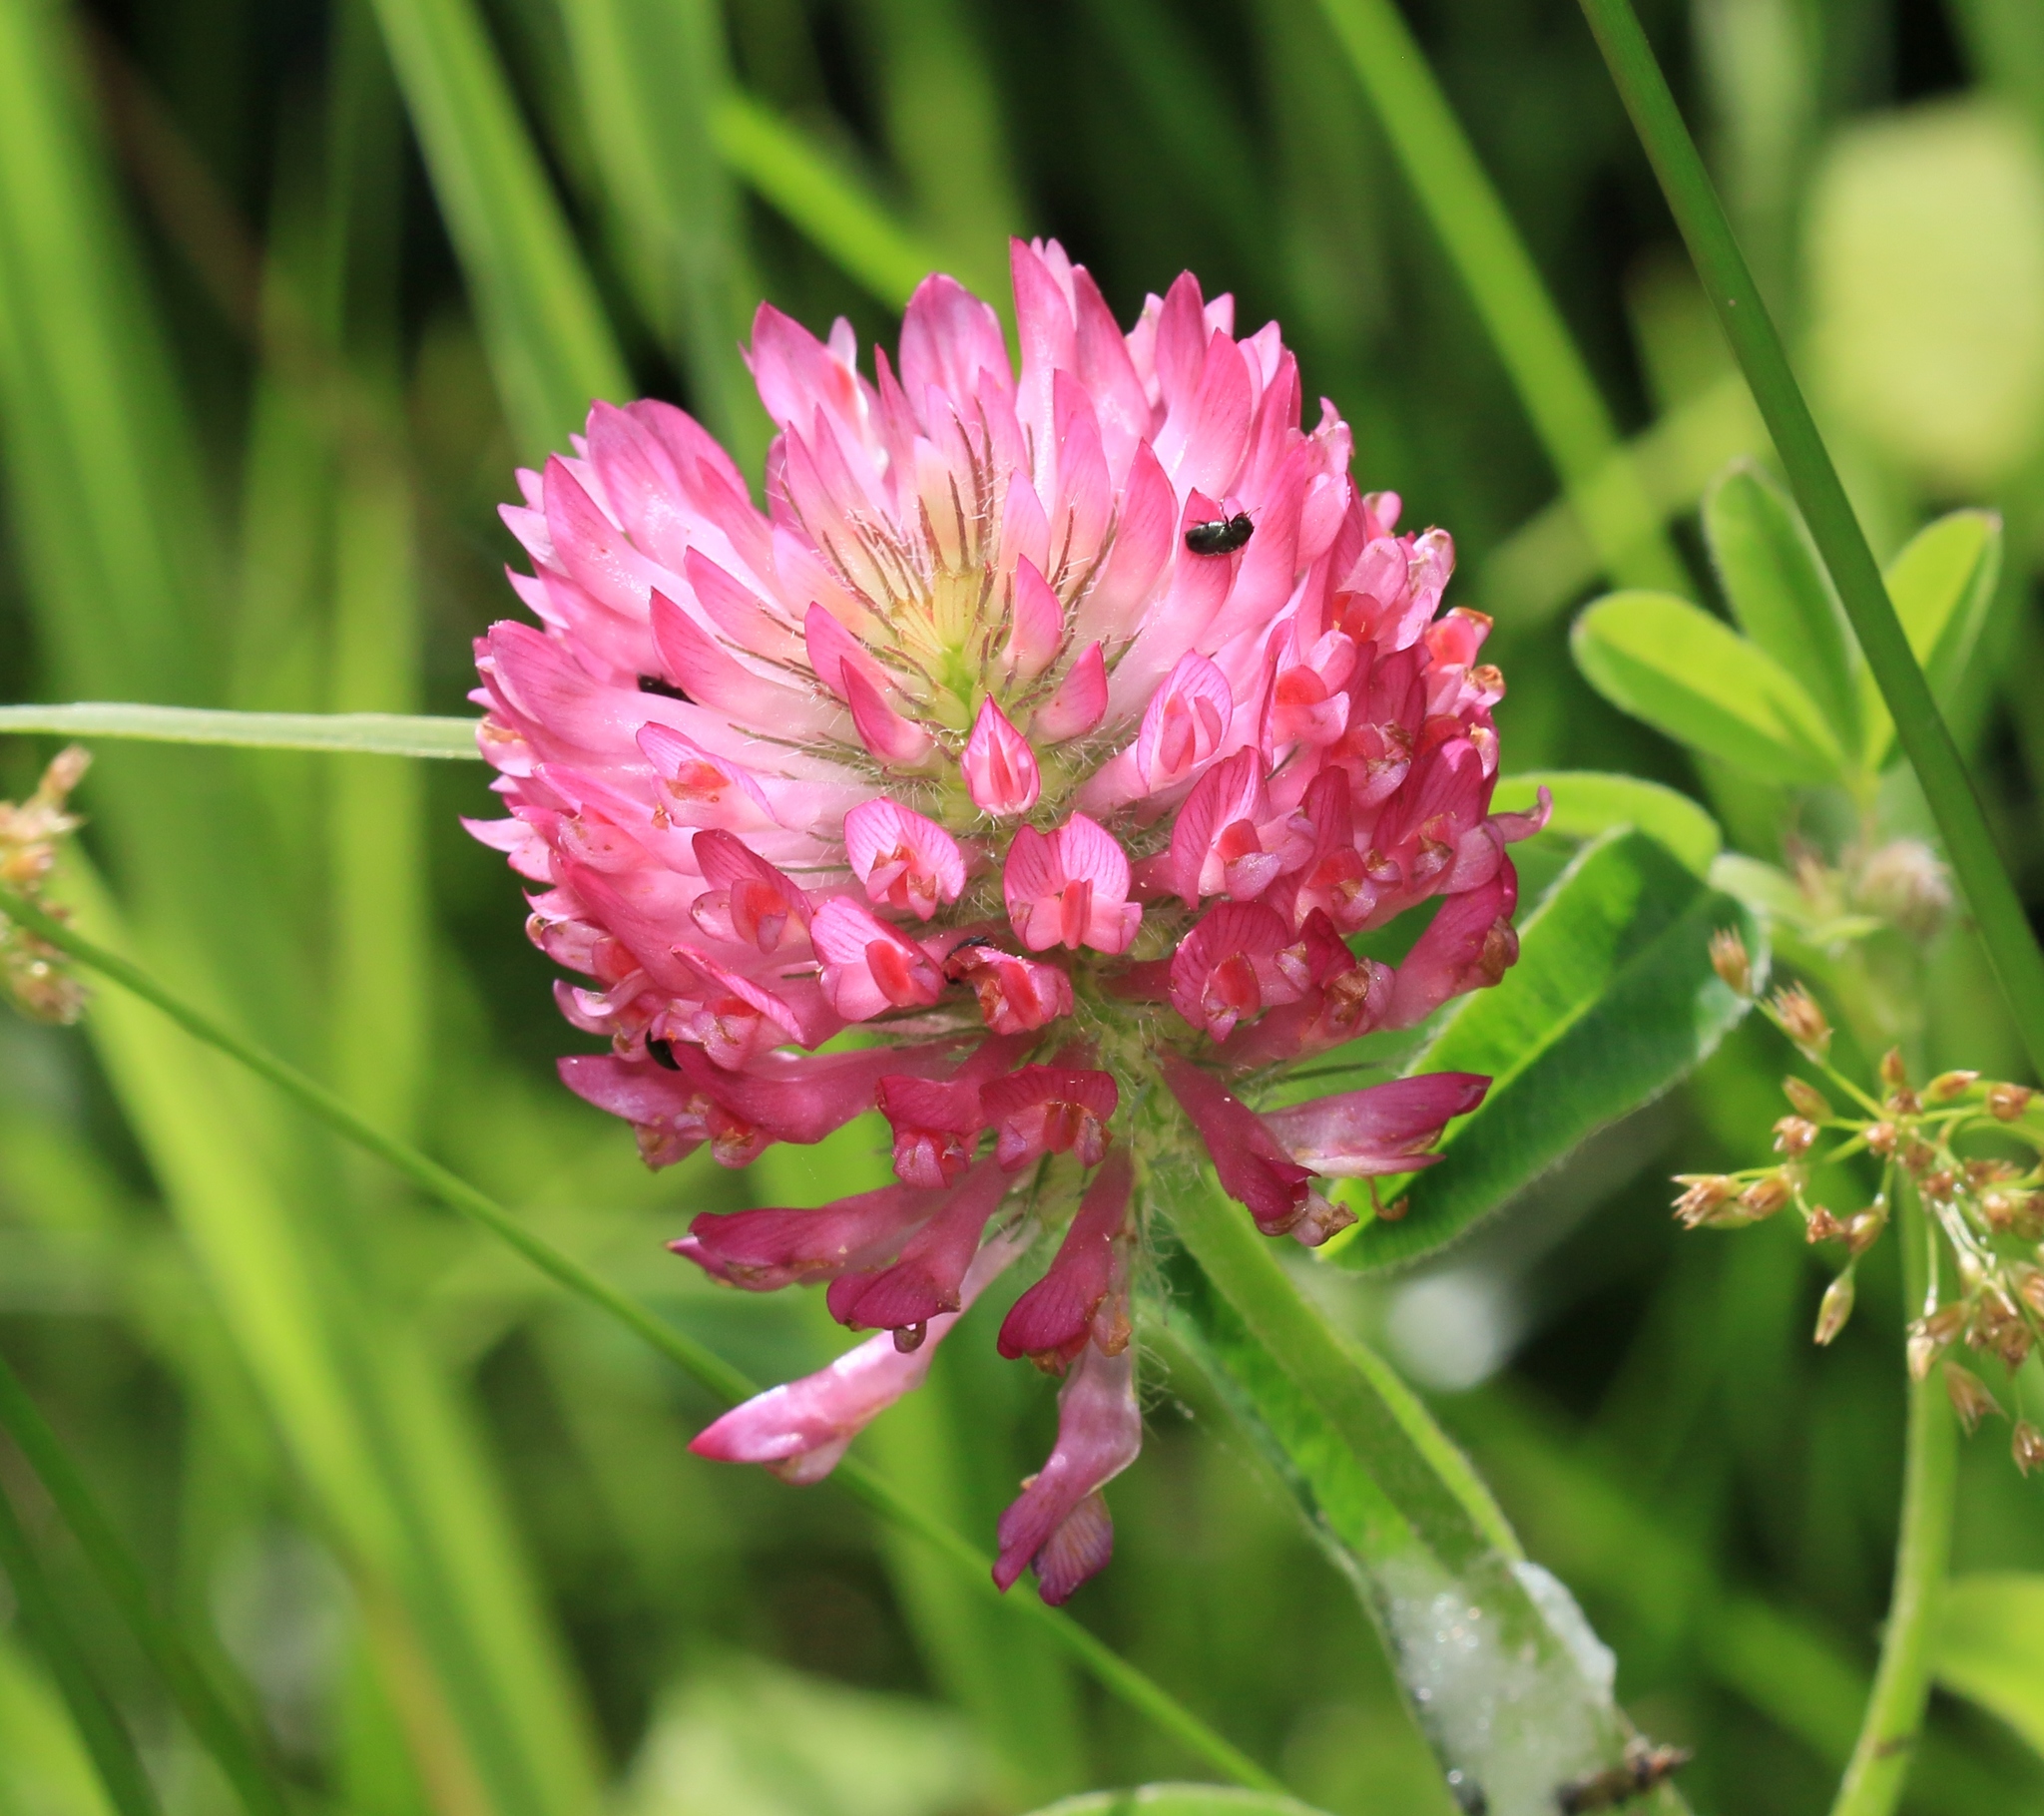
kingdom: Plantae
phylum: Tracheophyta
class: Magnoliopsida
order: Fabales
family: Fabaceae
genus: Trifolium
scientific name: Trifolium pratense
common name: Red clover
